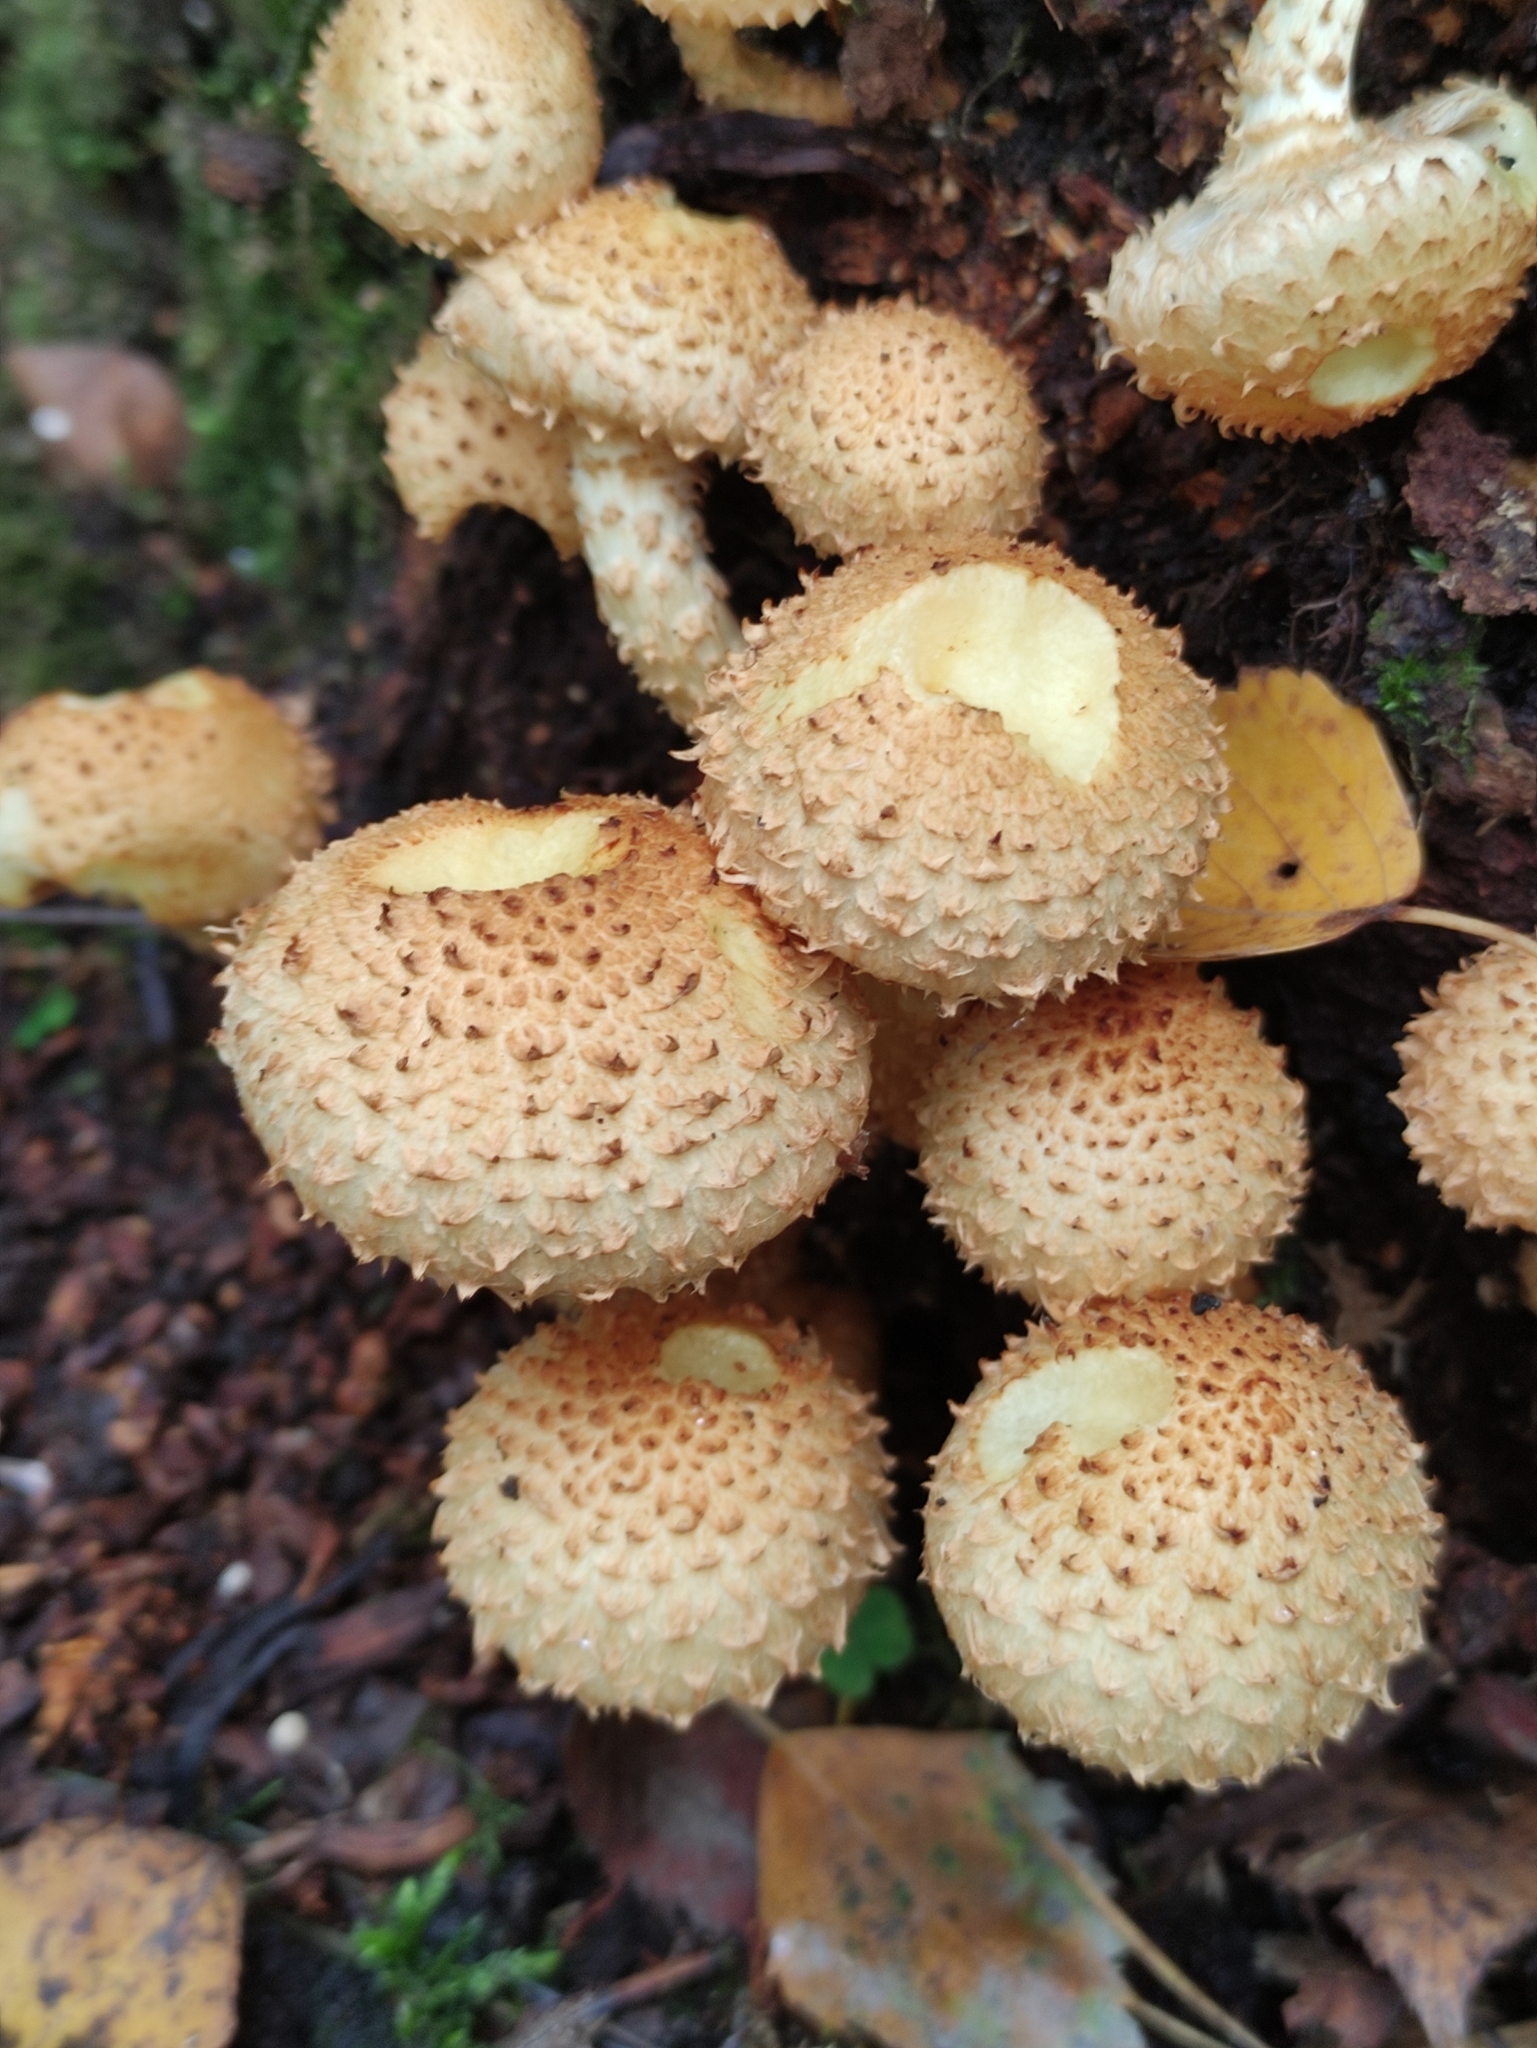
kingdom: Fungi
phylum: Basidiomycota
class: Agaricomycetes
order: Agaricales
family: Strophariaceae
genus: Pholiota
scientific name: Pholiota squarrosa
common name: Shaggy pholiota
